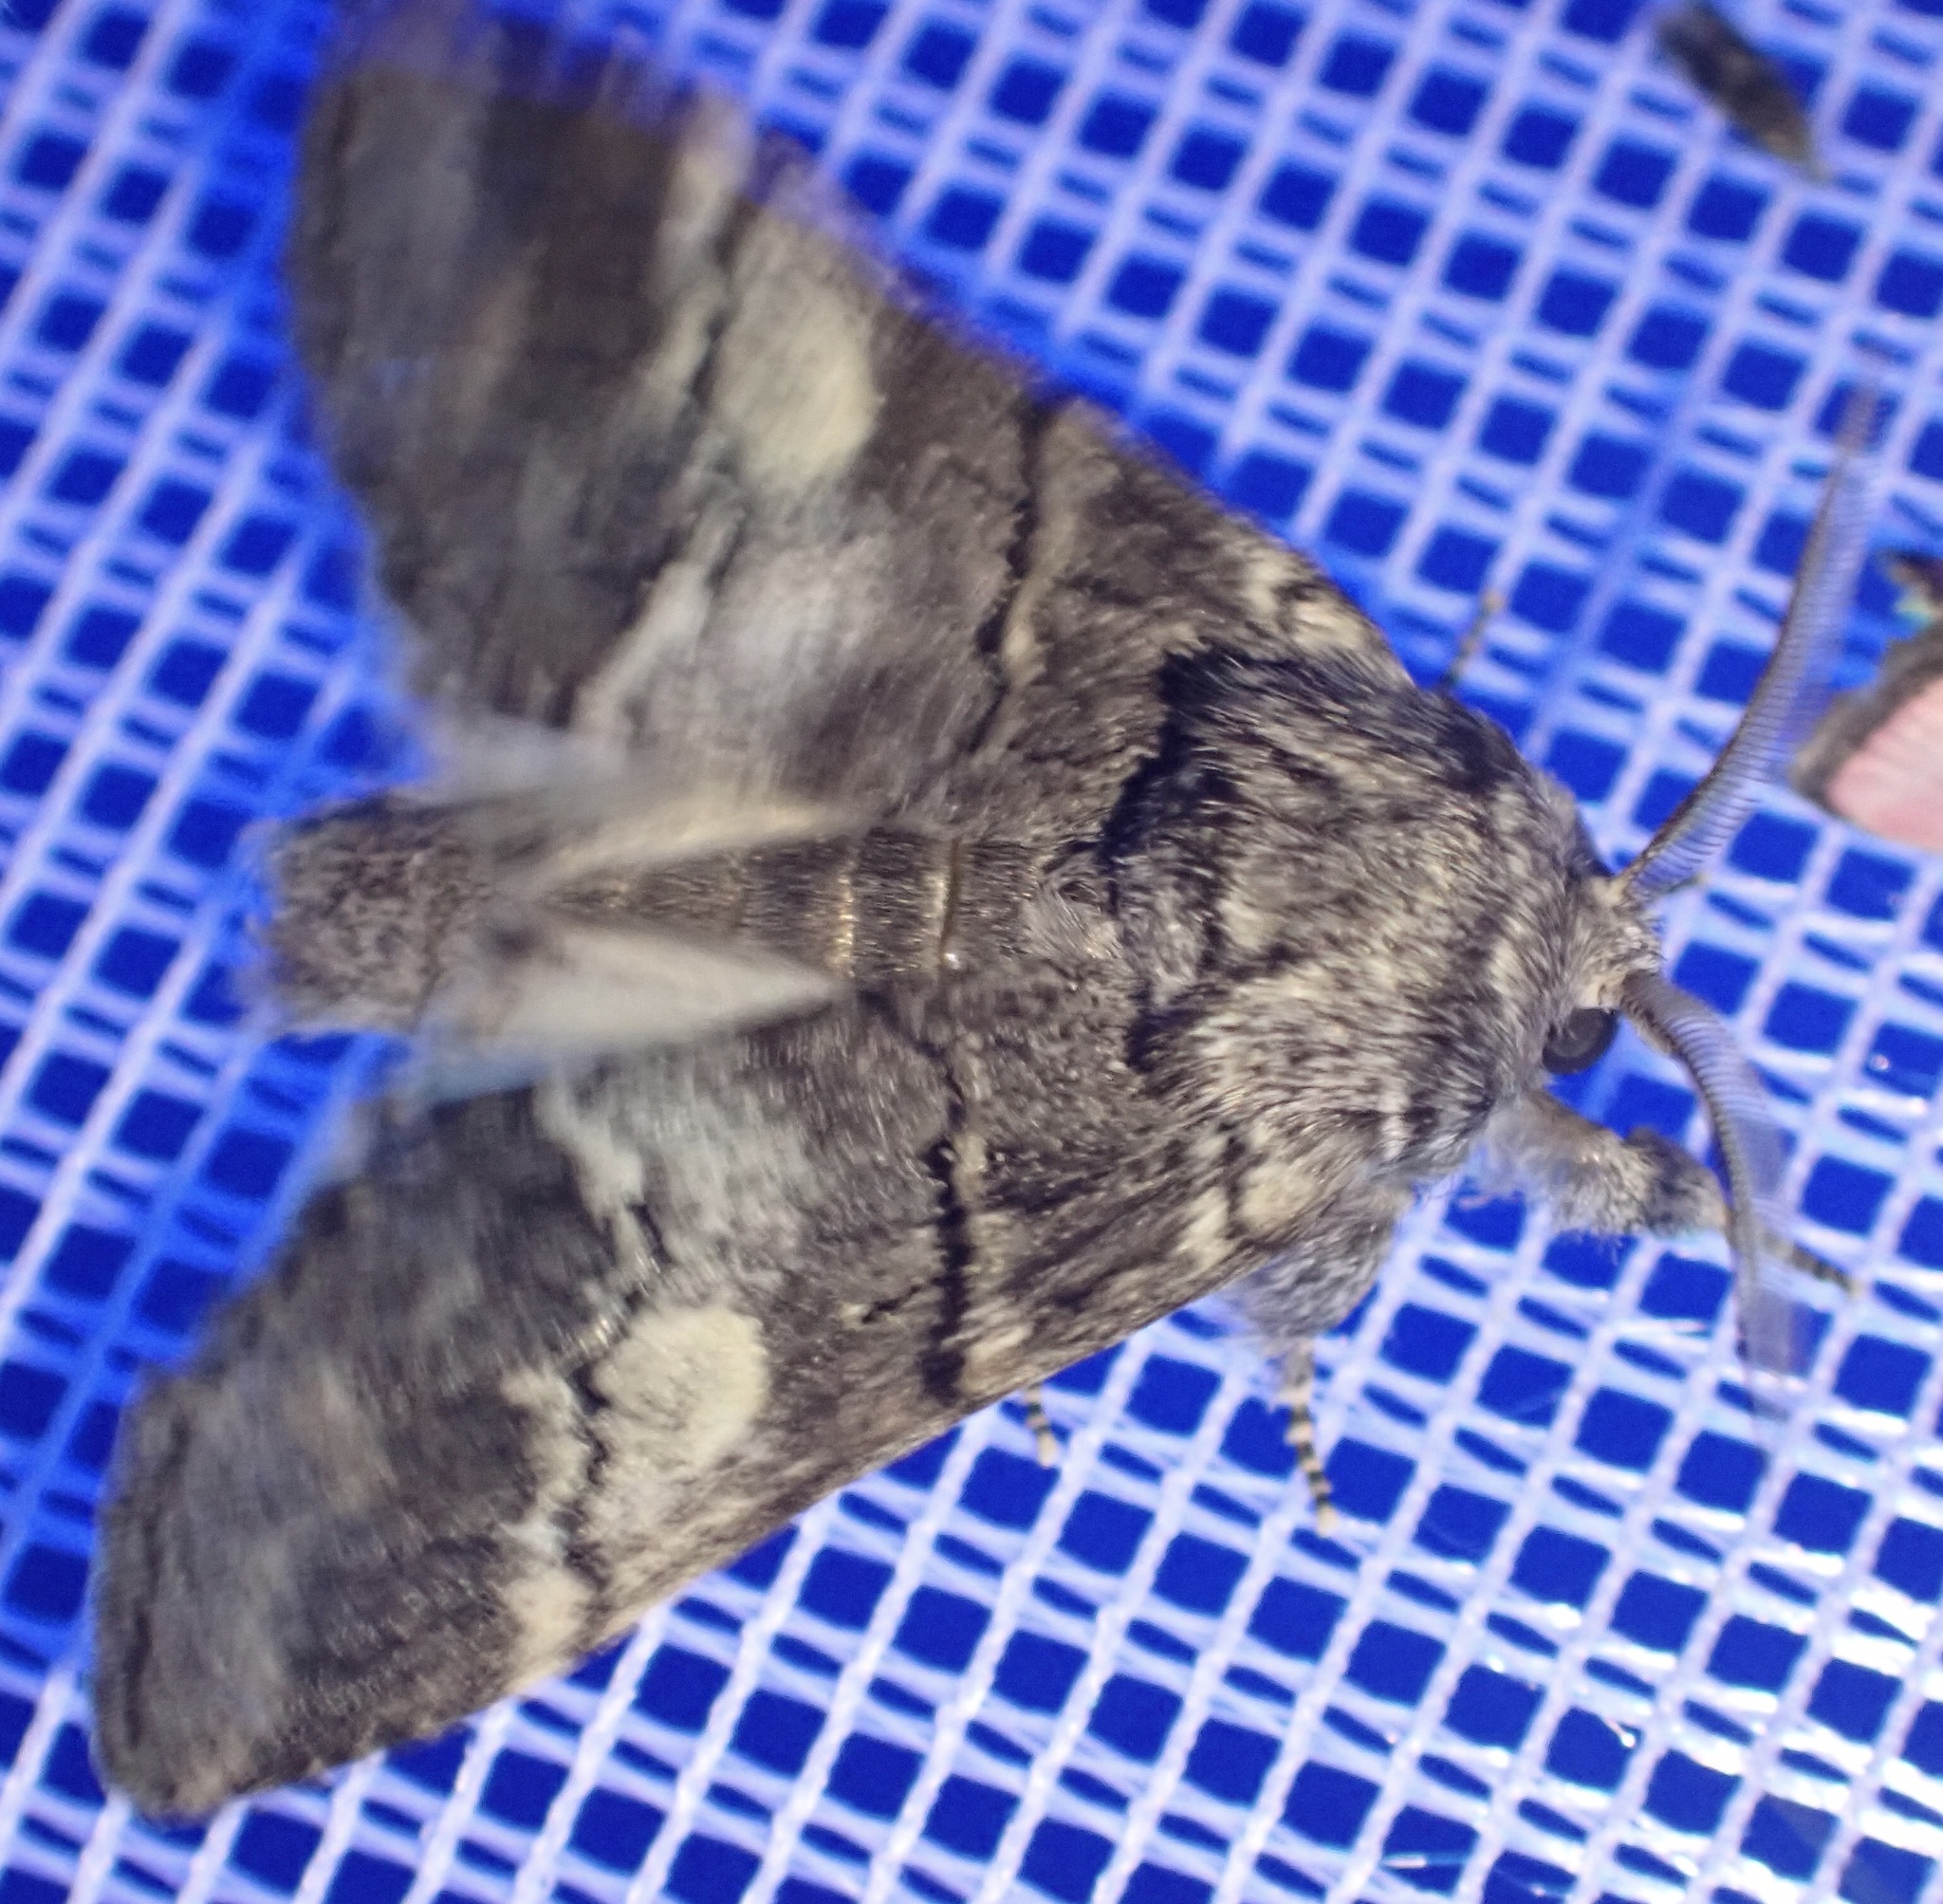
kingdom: Animalia
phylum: Arthropoda
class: Insecta
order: Lepidoptera
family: Notodontidae
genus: Drymonia
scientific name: Drymonia querna
